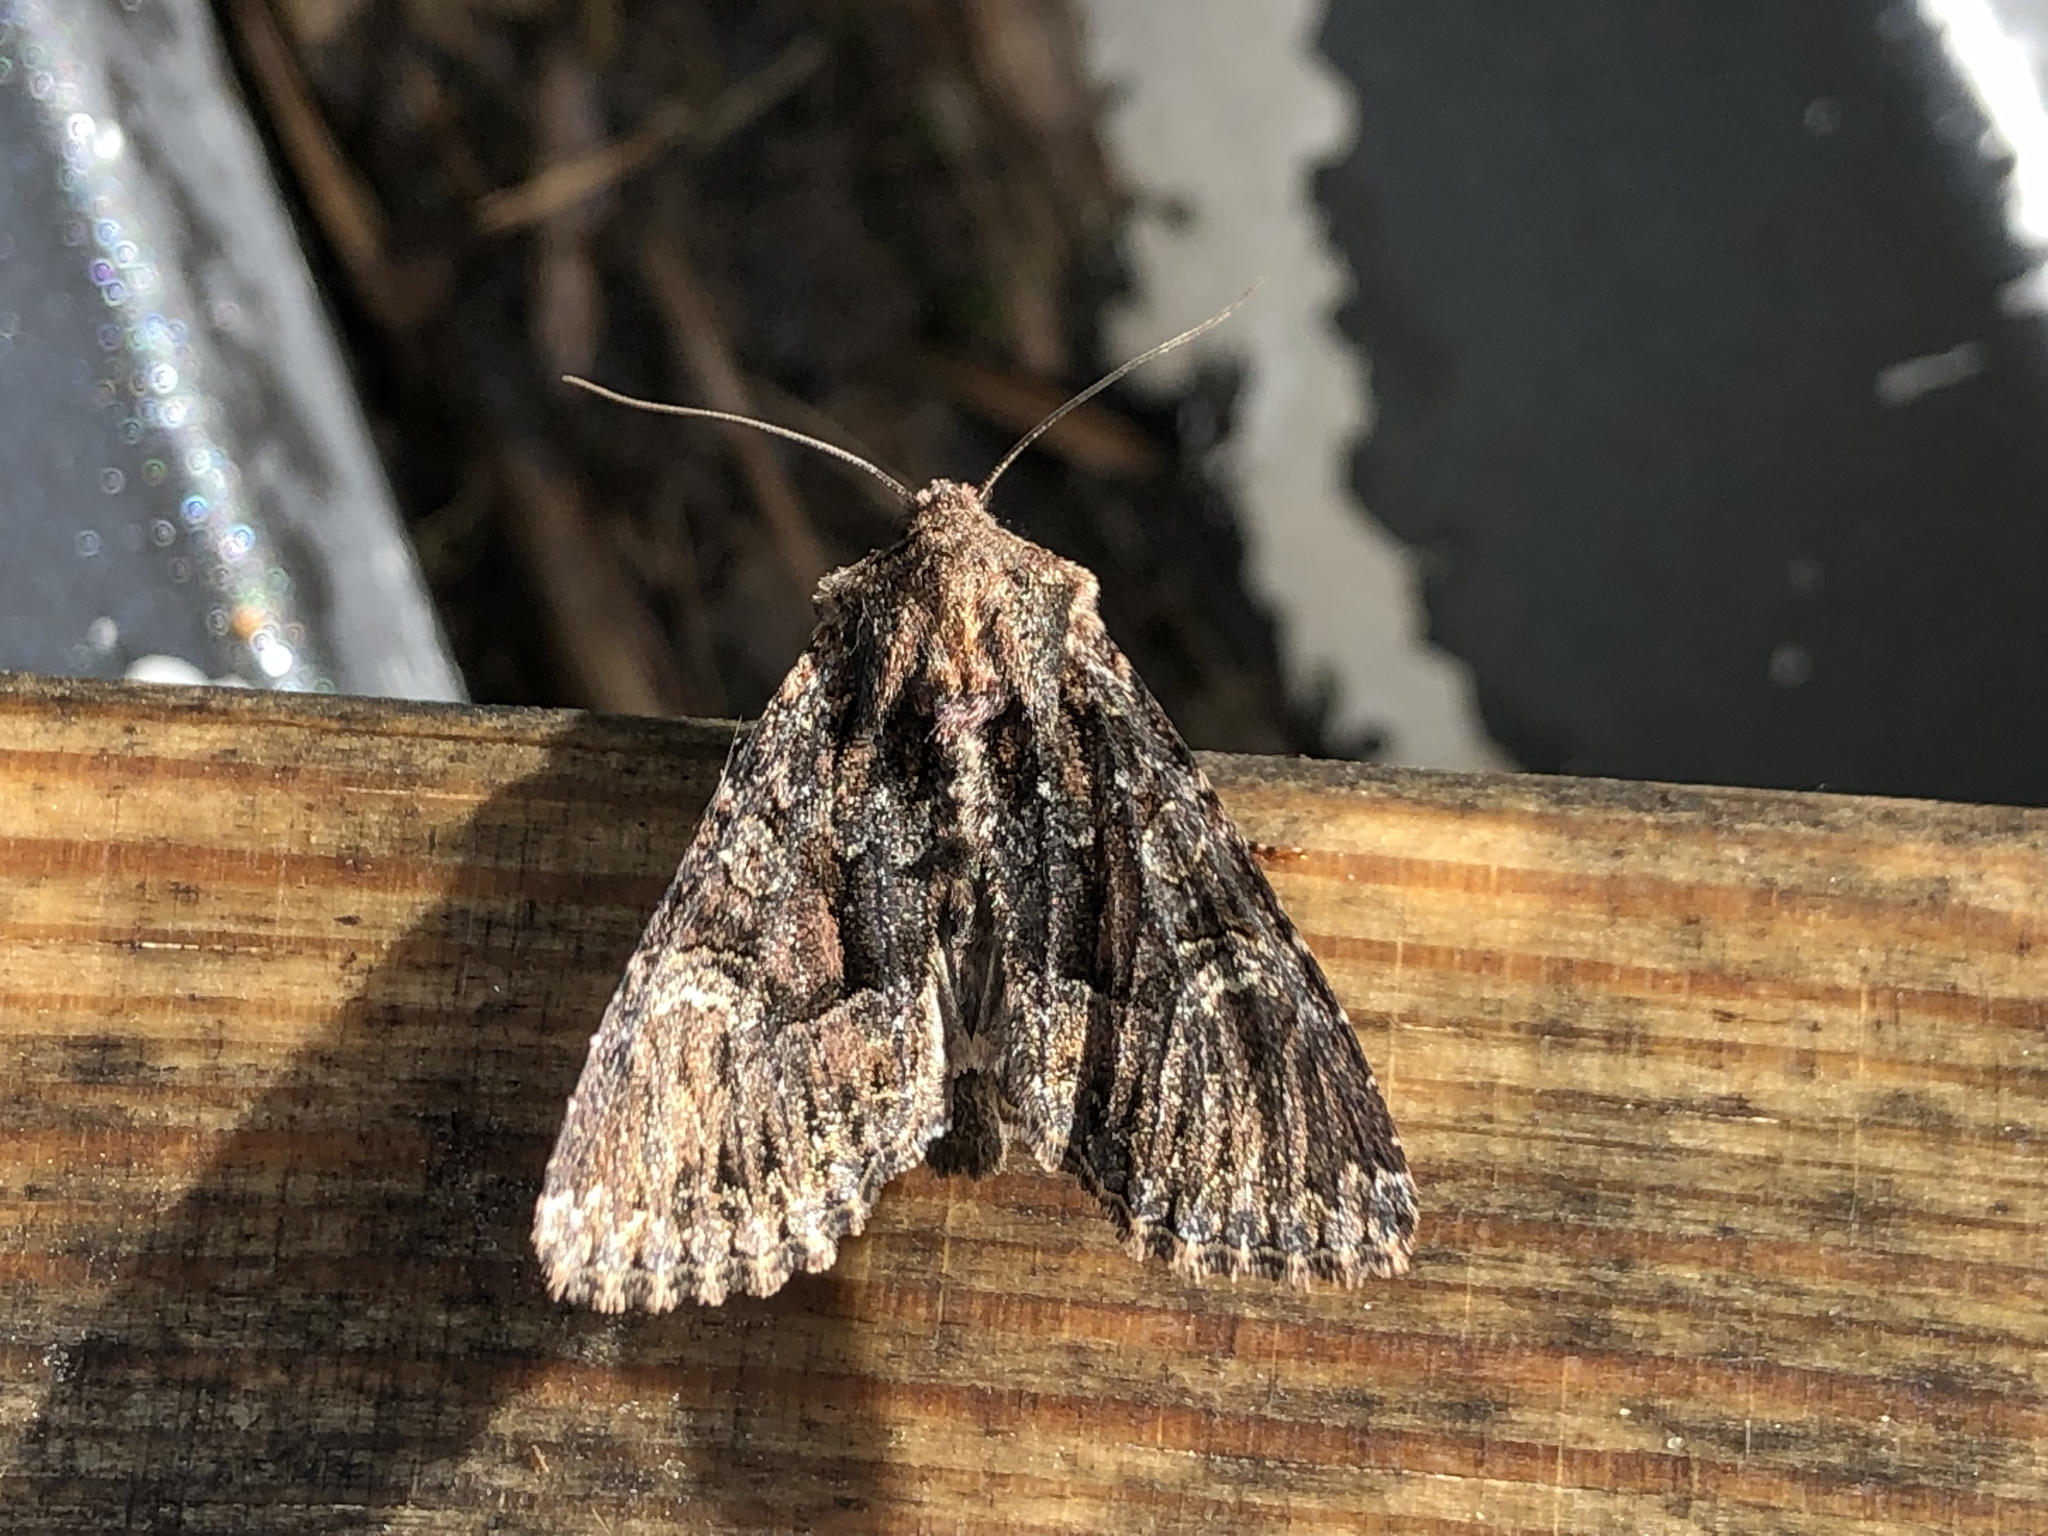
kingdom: Animalia
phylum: Arthropoda
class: Insecta
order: Lepidoptera
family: Noctuidae
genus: Mniotype
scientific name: Mniotype adusta
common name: Dark brocade
